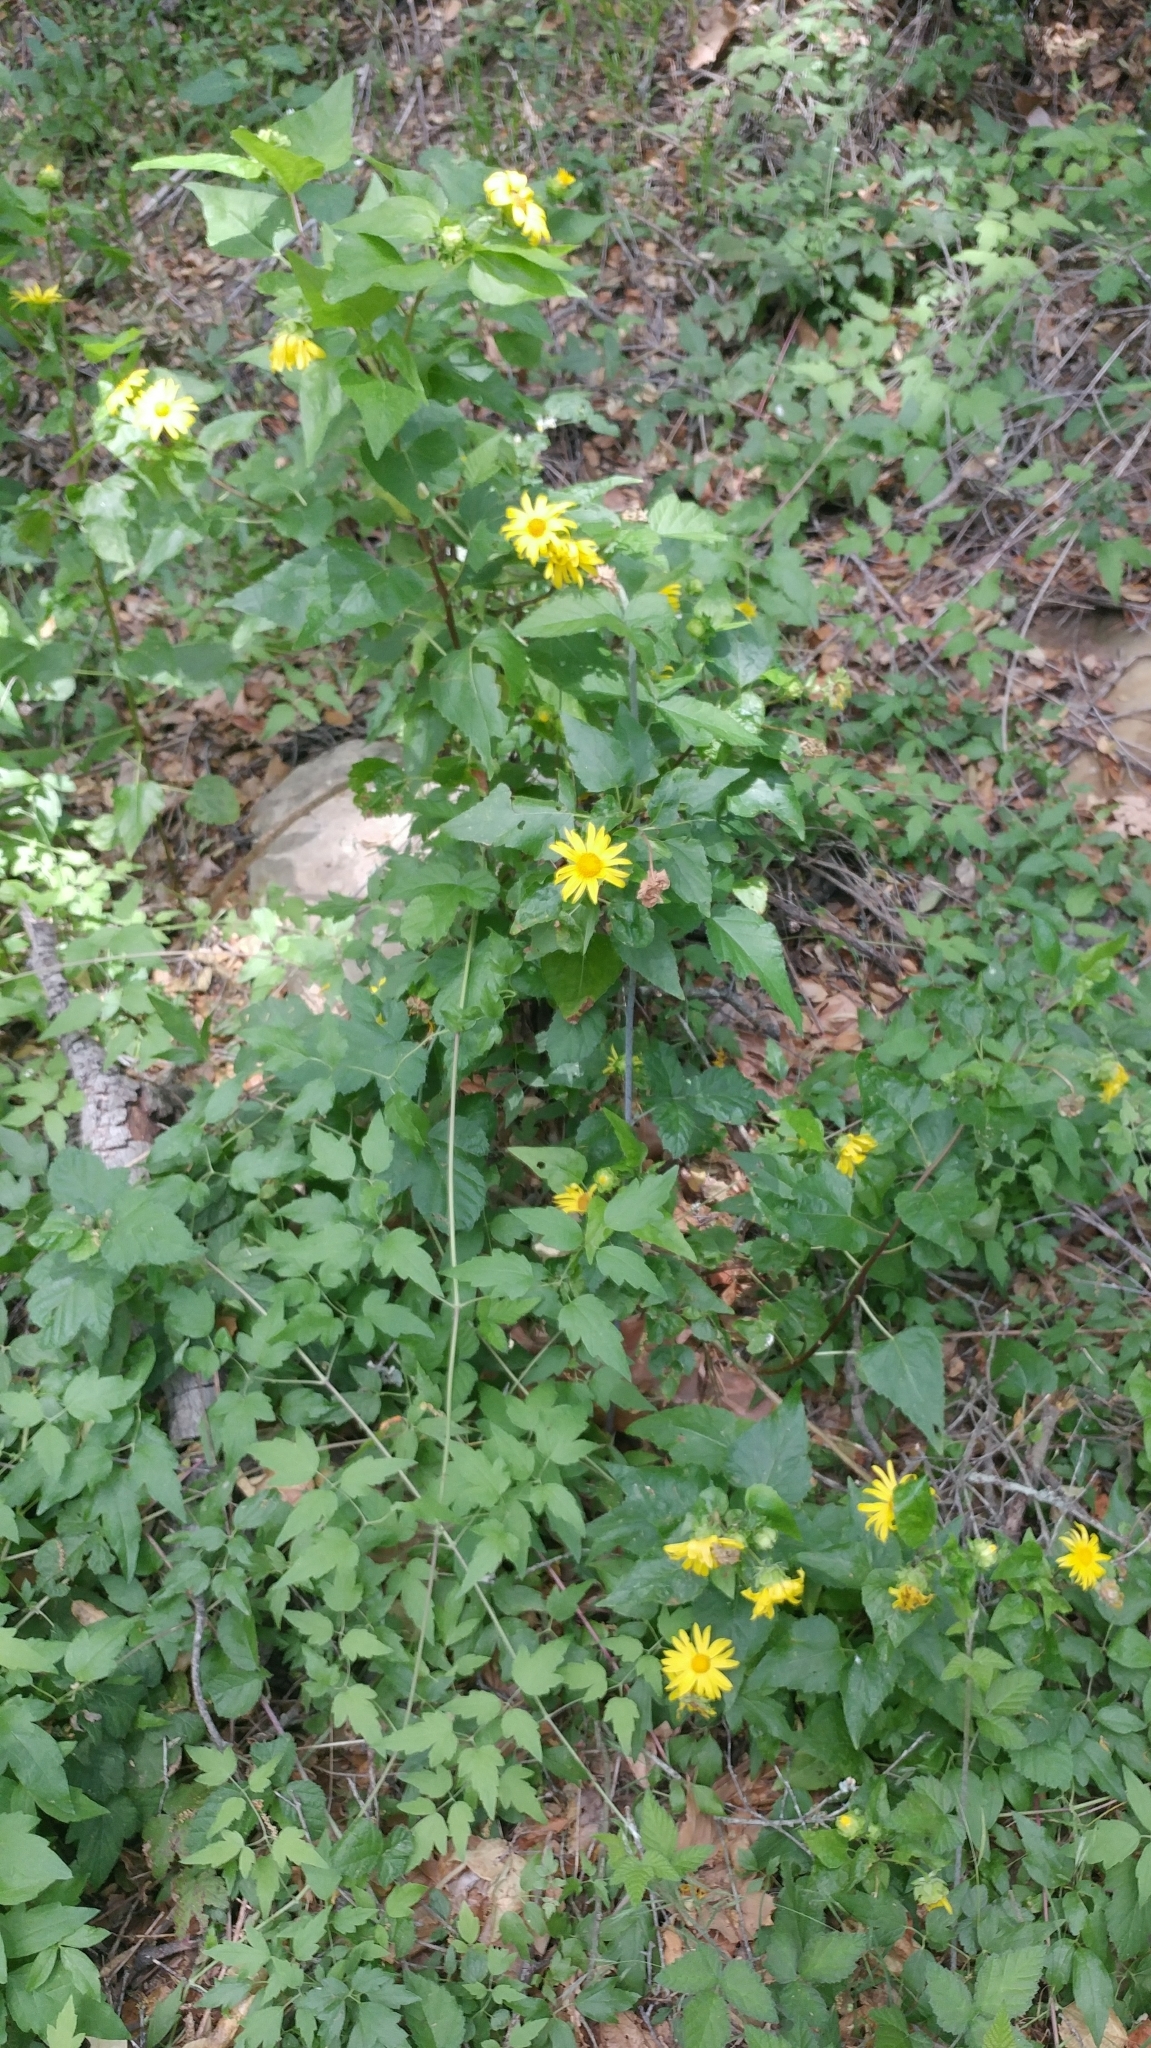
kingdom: Plantae
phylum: Tracheophyta
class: Magnoliopsida
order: Asterales
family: Asteraceae
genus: Venegasia
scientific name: Venegasia carpesioides
